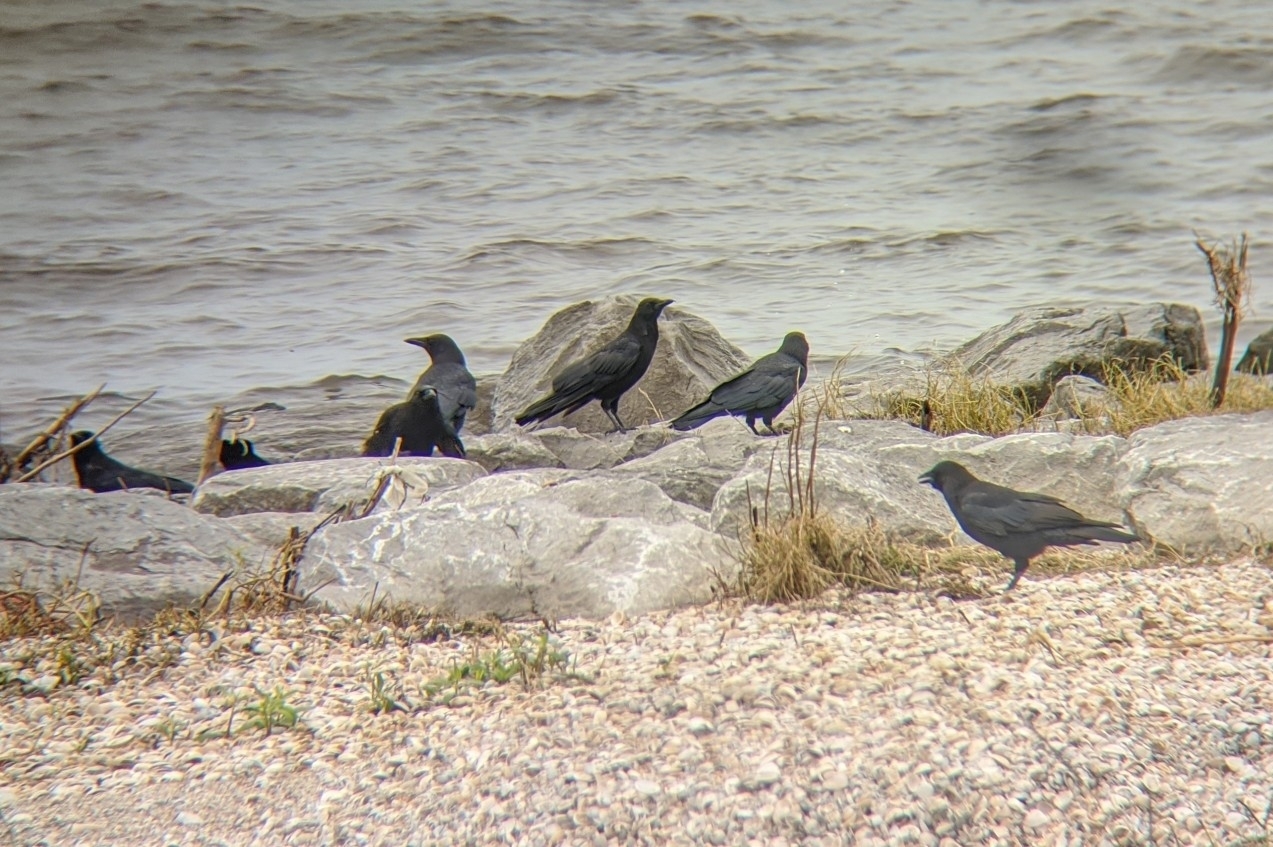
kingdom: Animalia
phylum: Chordata
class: Aves
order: Passeriformes
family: Corvidae
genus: Corvus
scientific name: Corvus brachyrhynchos
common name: American crow
